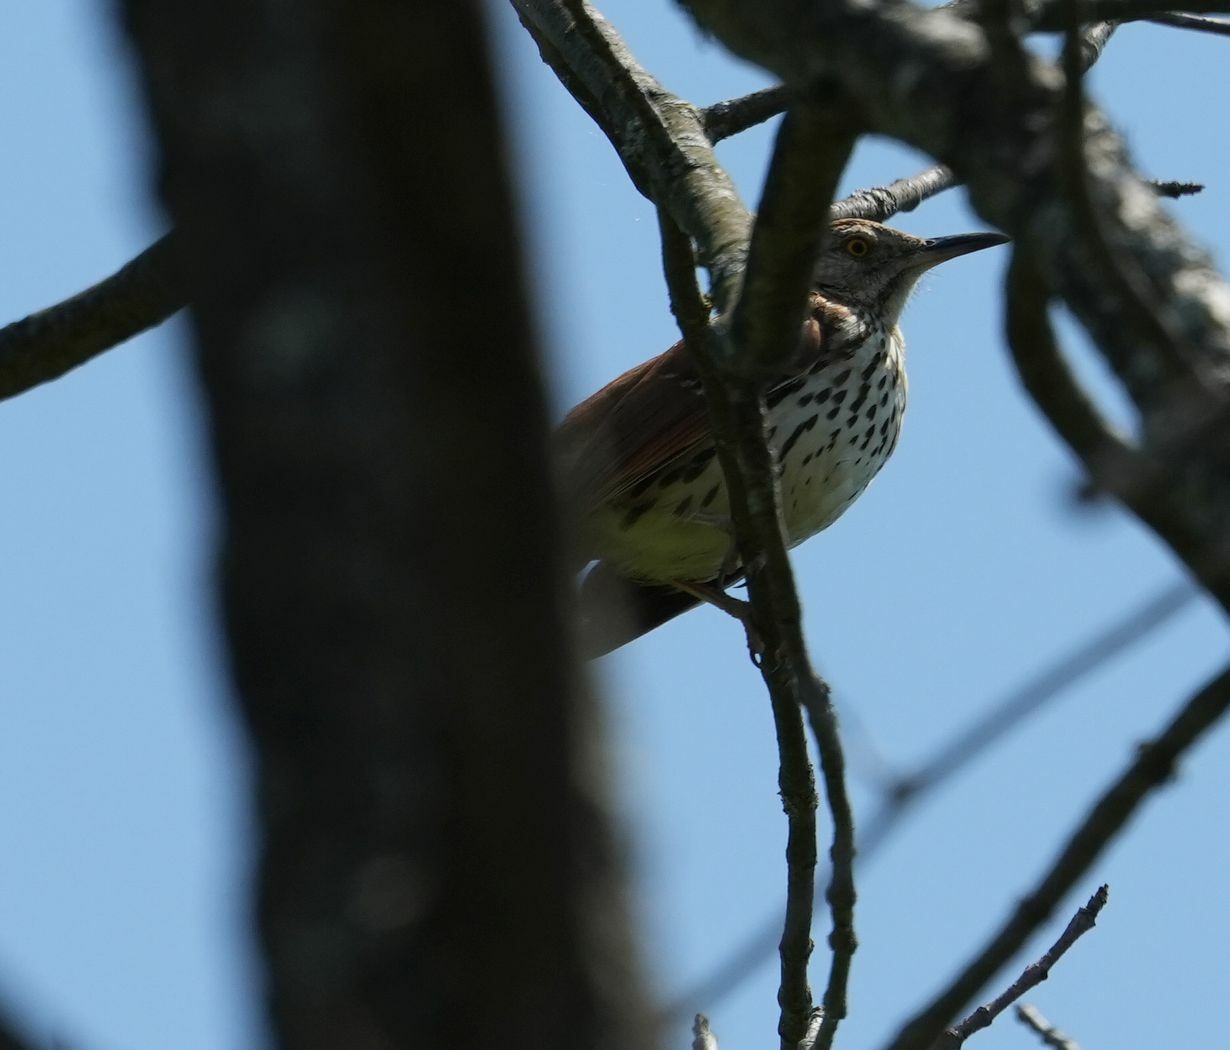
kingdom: Animalia
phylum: Chordata
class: Aves
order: Passeriformes
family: Mimidae
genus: Toxostoma
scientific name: Toxostoma rufum
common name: Brown thrasher
